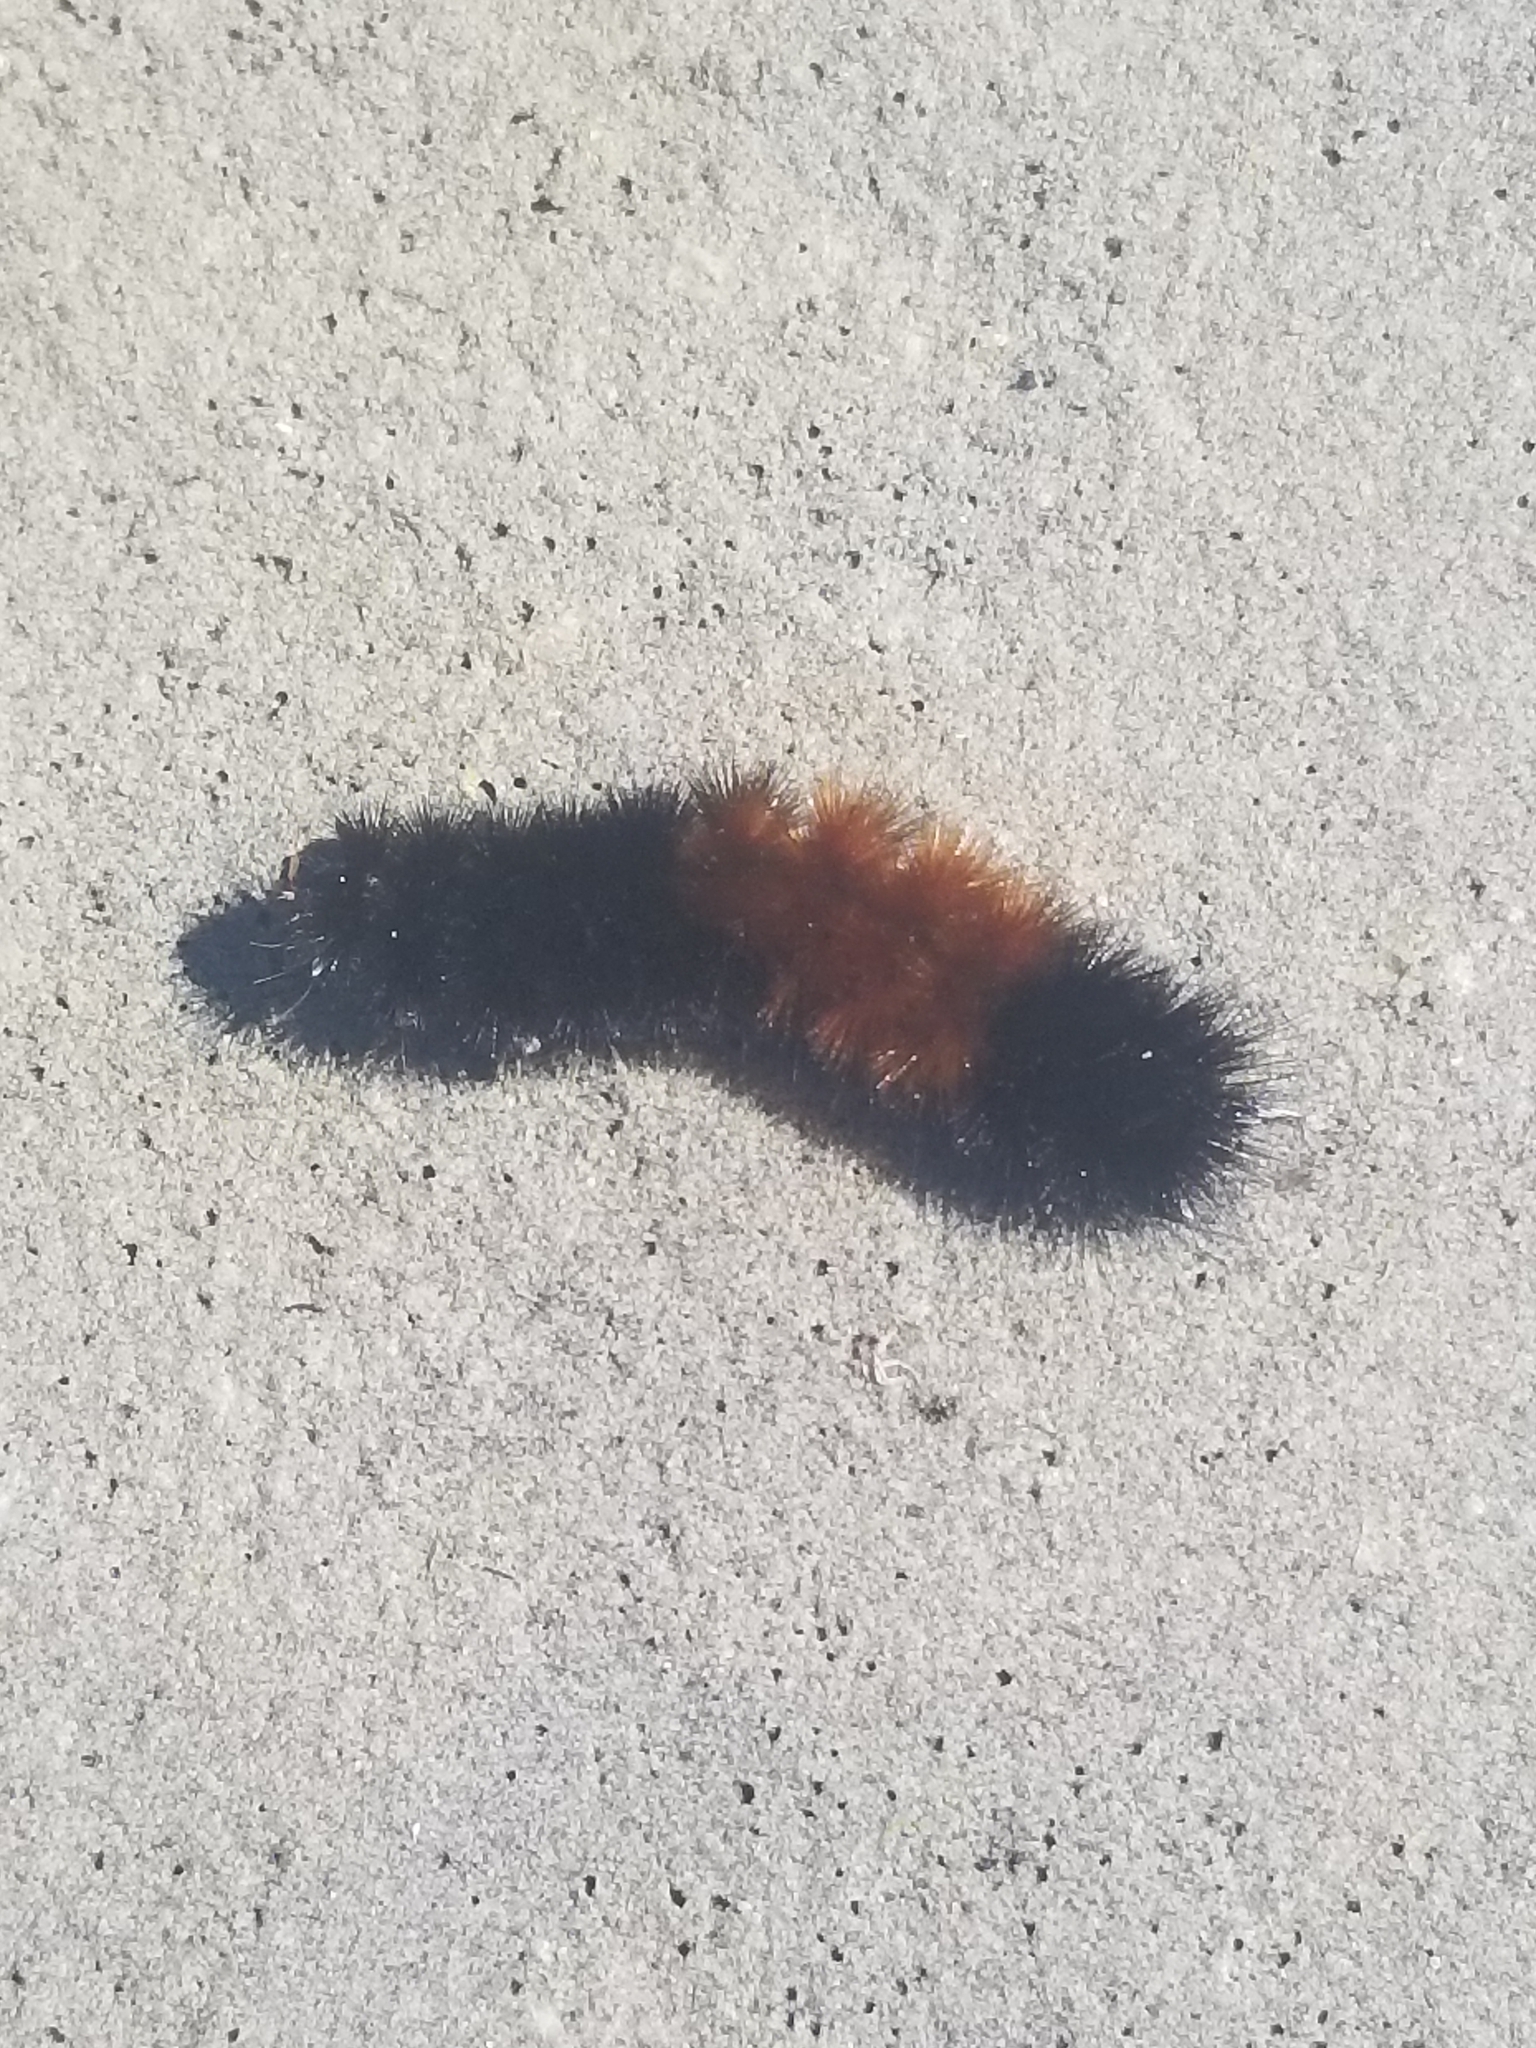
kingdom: Animalia
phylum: Arthropoda
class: Insecta
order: Lepidoptera
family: Erebidae
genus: Pyrrharctia
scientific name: Pyrrharctia isabella
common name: Isabella tiger moth
